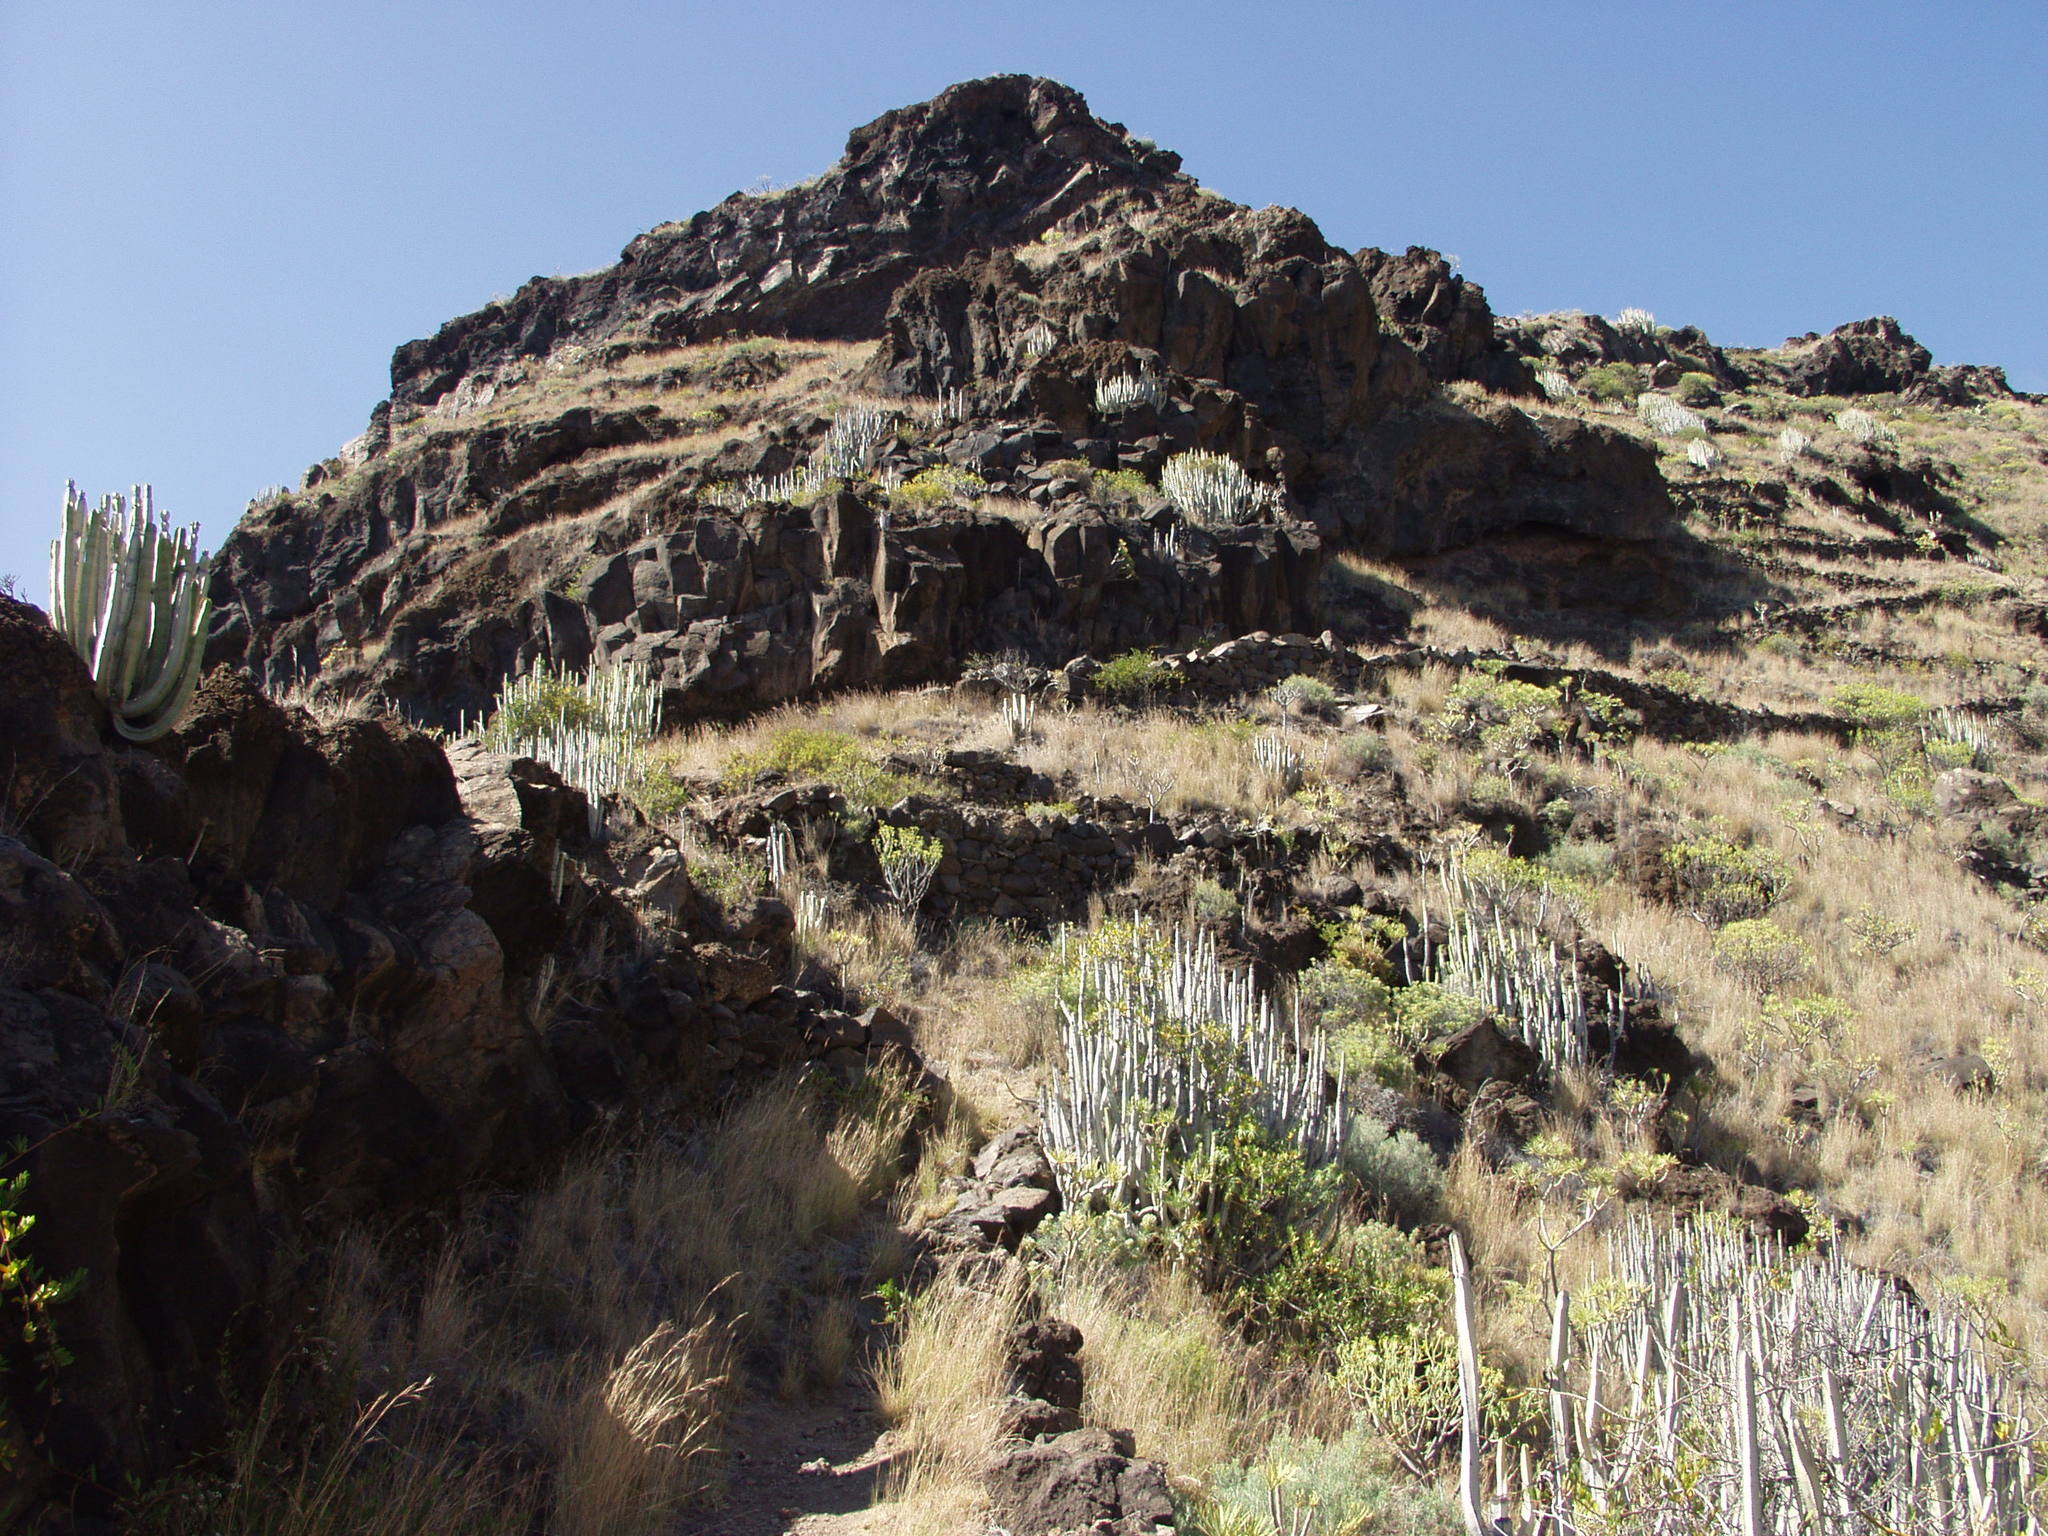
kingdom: Plantae
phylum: Tracheophyta
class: Magnoliopsida
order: Malpighiales
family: Euphorbiaceae
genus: Euphorbia
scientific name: Euphorbia canariensis
